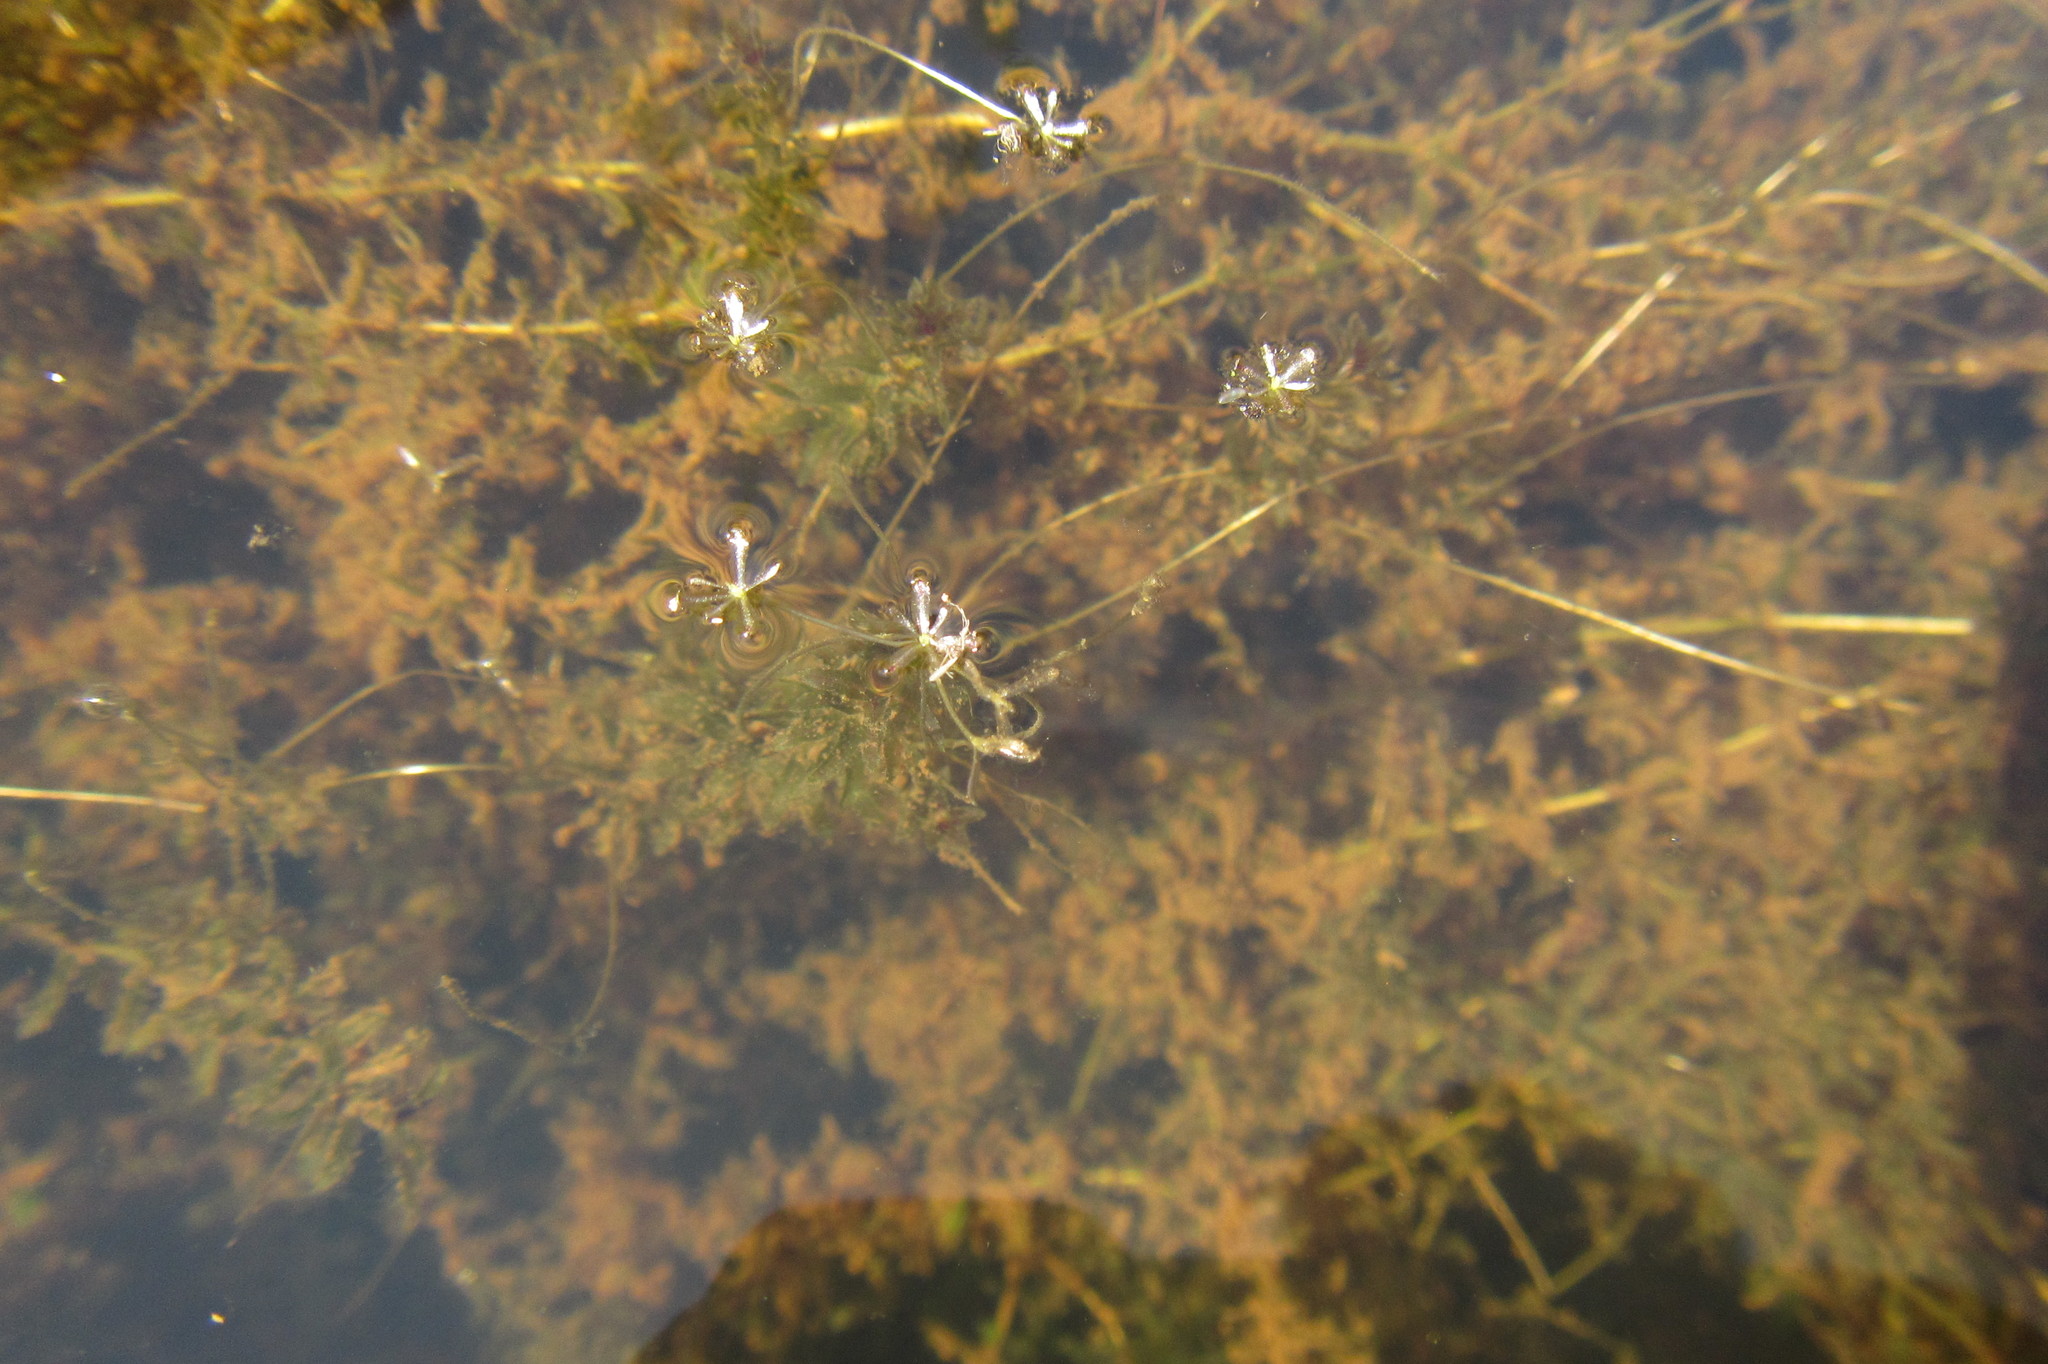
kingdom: Plantae
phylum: Tracheophyta
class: Liliopsida
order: Alismatales
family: Hydrocharitaceae
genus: Hydrilla
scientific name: Hydrilla verticillata
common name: Florida-elodea
